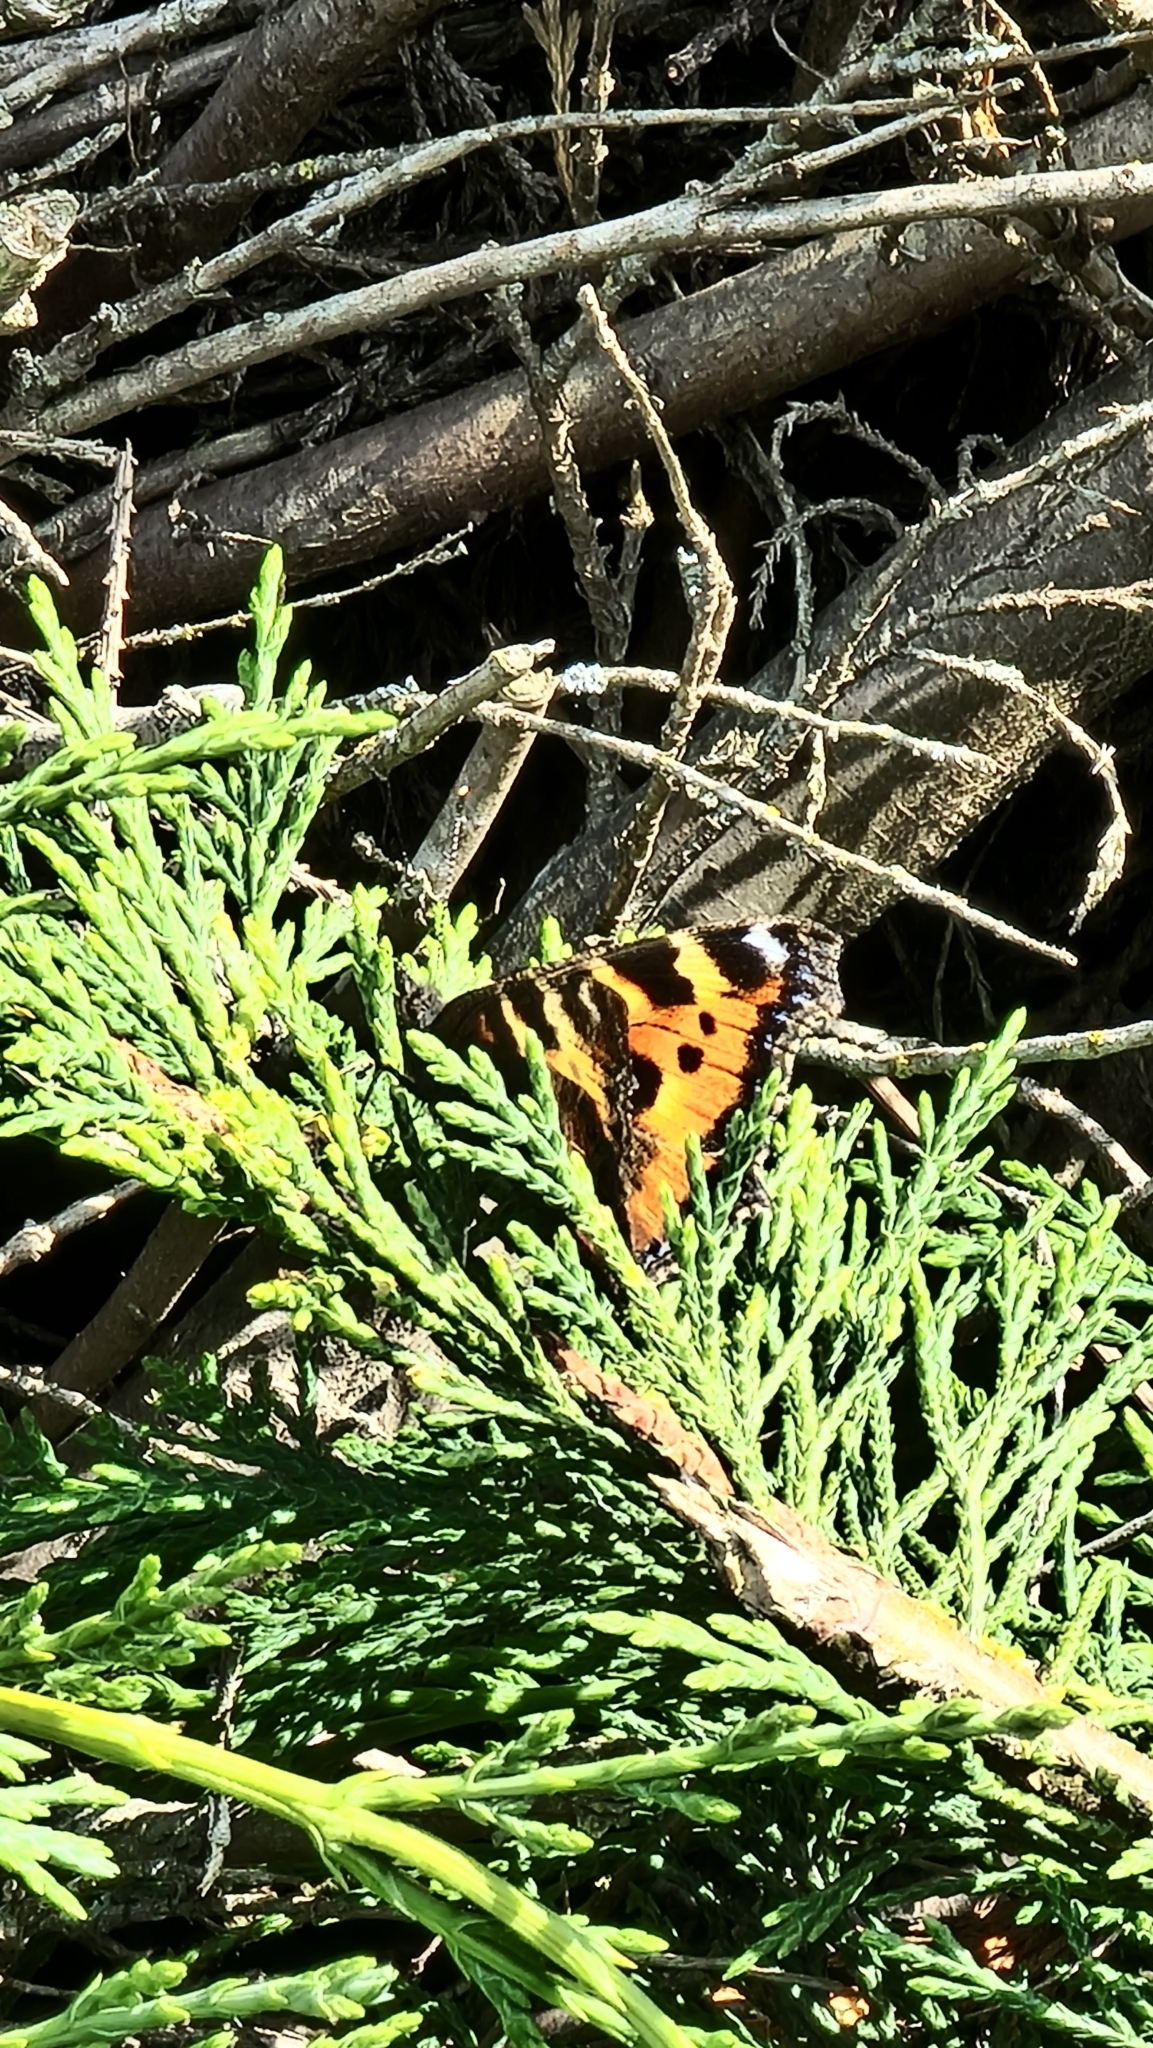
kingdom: Animalia
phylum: Arthropoda
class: Insecta
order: Lepidoptera
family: Nymphalidae
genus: Aglais
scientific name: Aglais urticae
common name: Small tortoiseshell
